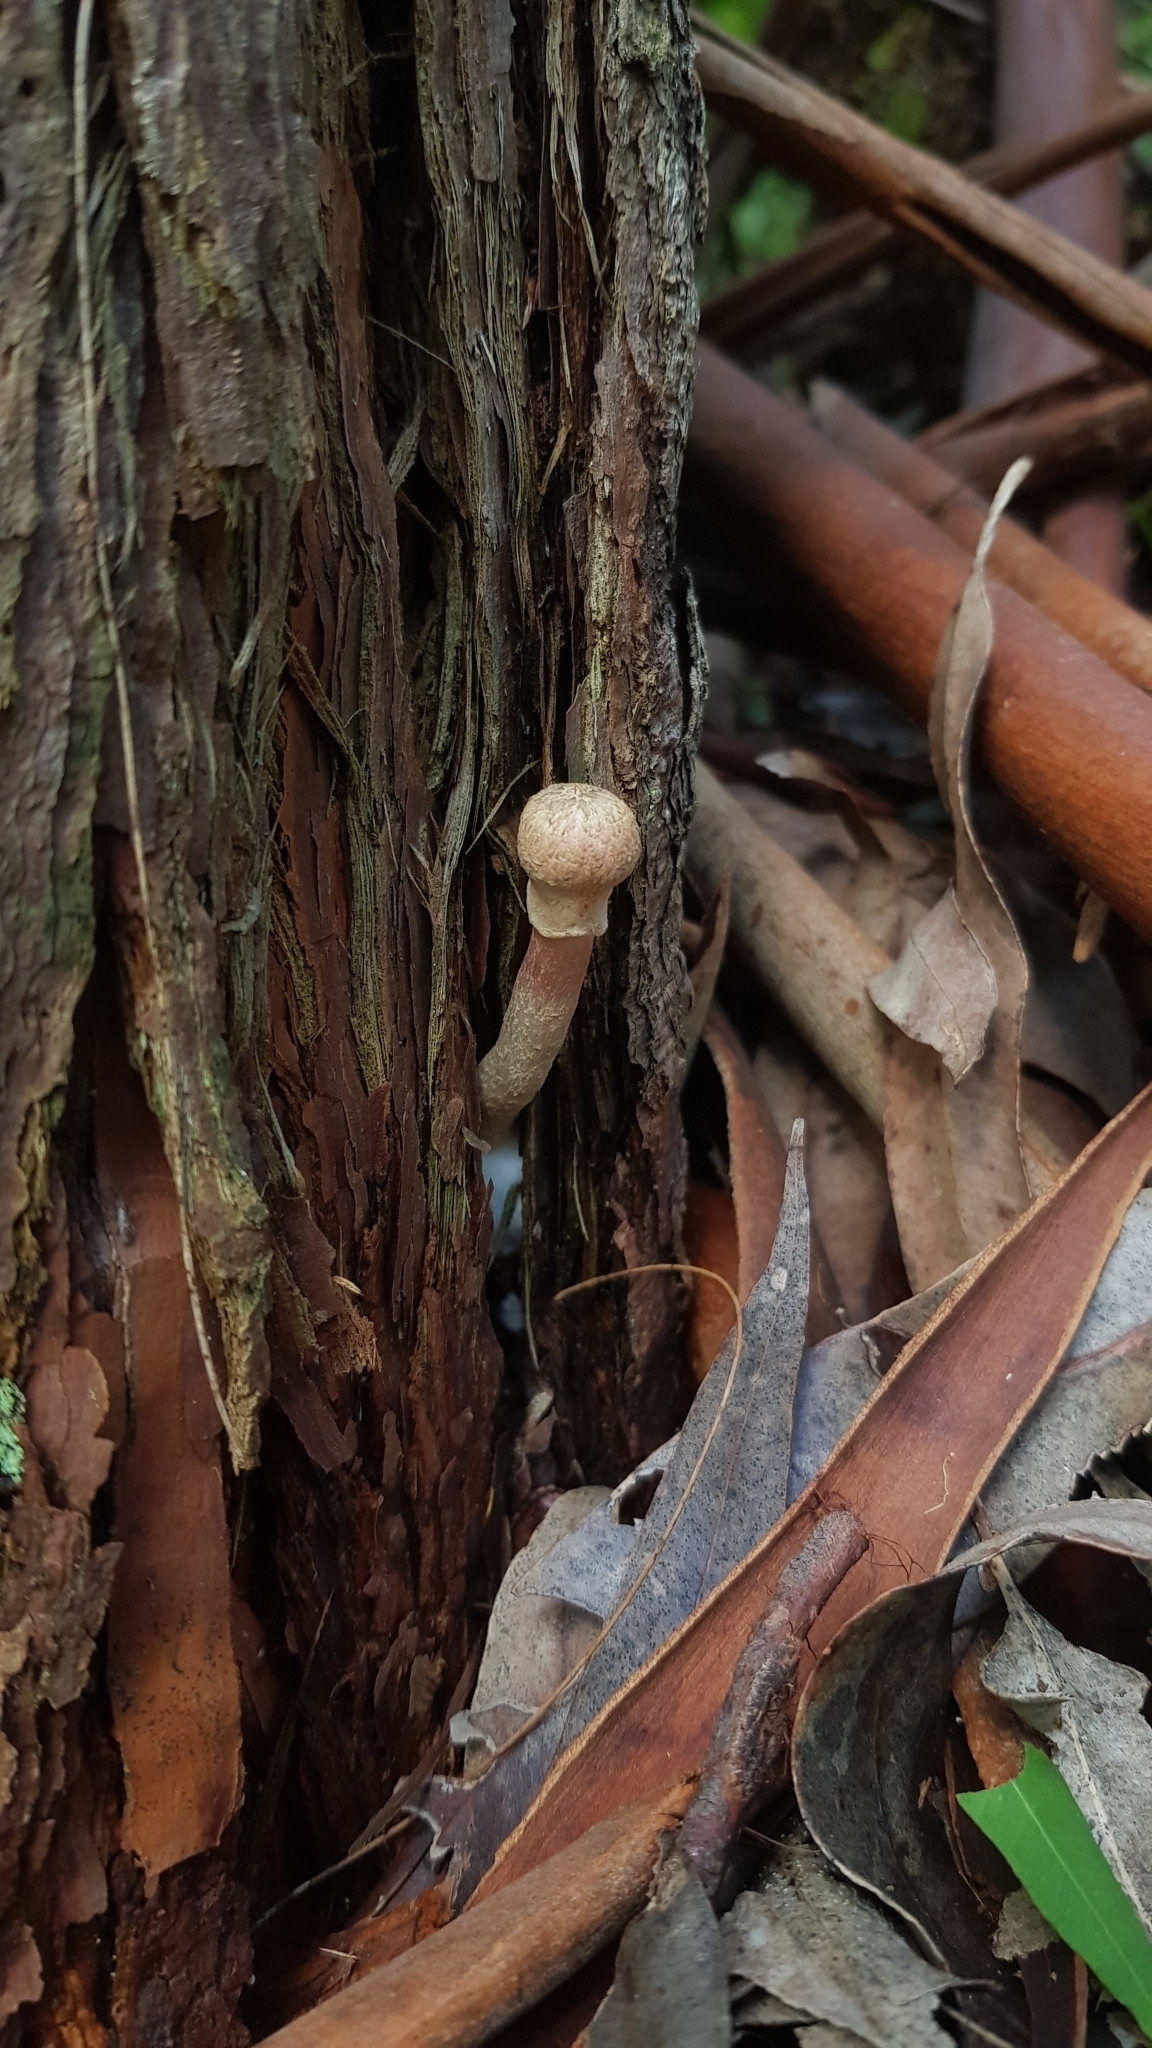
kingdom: Fungi
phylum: Basidiomycota
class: Agaricomycetes
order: Boletales
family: Boletaceae
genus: Boletellus
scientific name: Boletellus deceptivus
